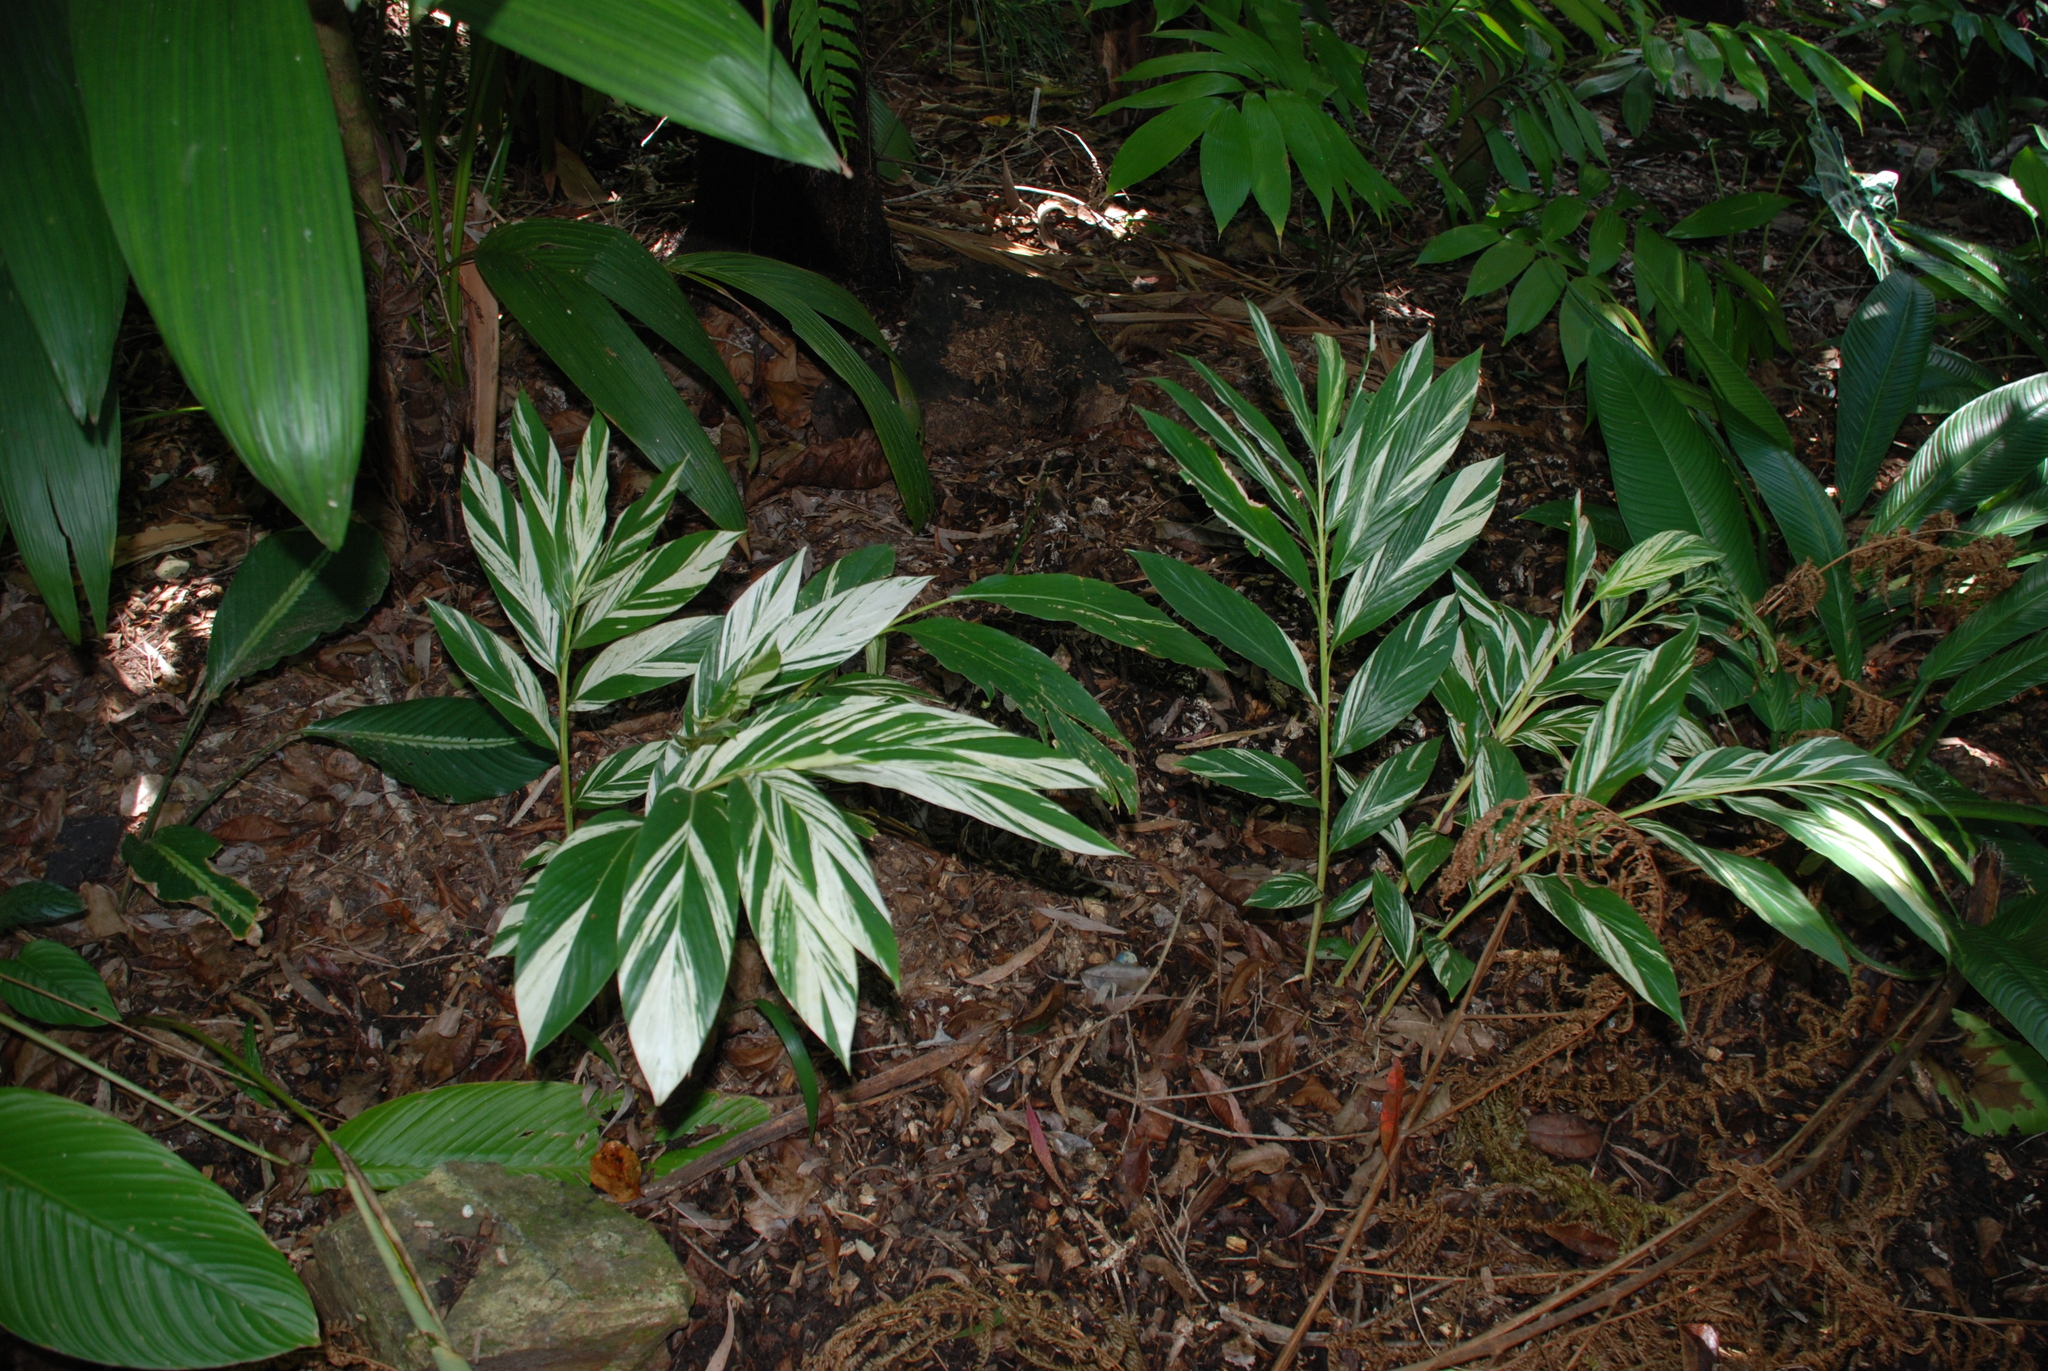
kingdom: Plantae
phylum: Tracheophyta
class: Liliopsida
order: Zingiberales
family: Zingiberaceae
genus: Alpinia
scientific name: Alpinia zerumbet
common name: Shellplant
